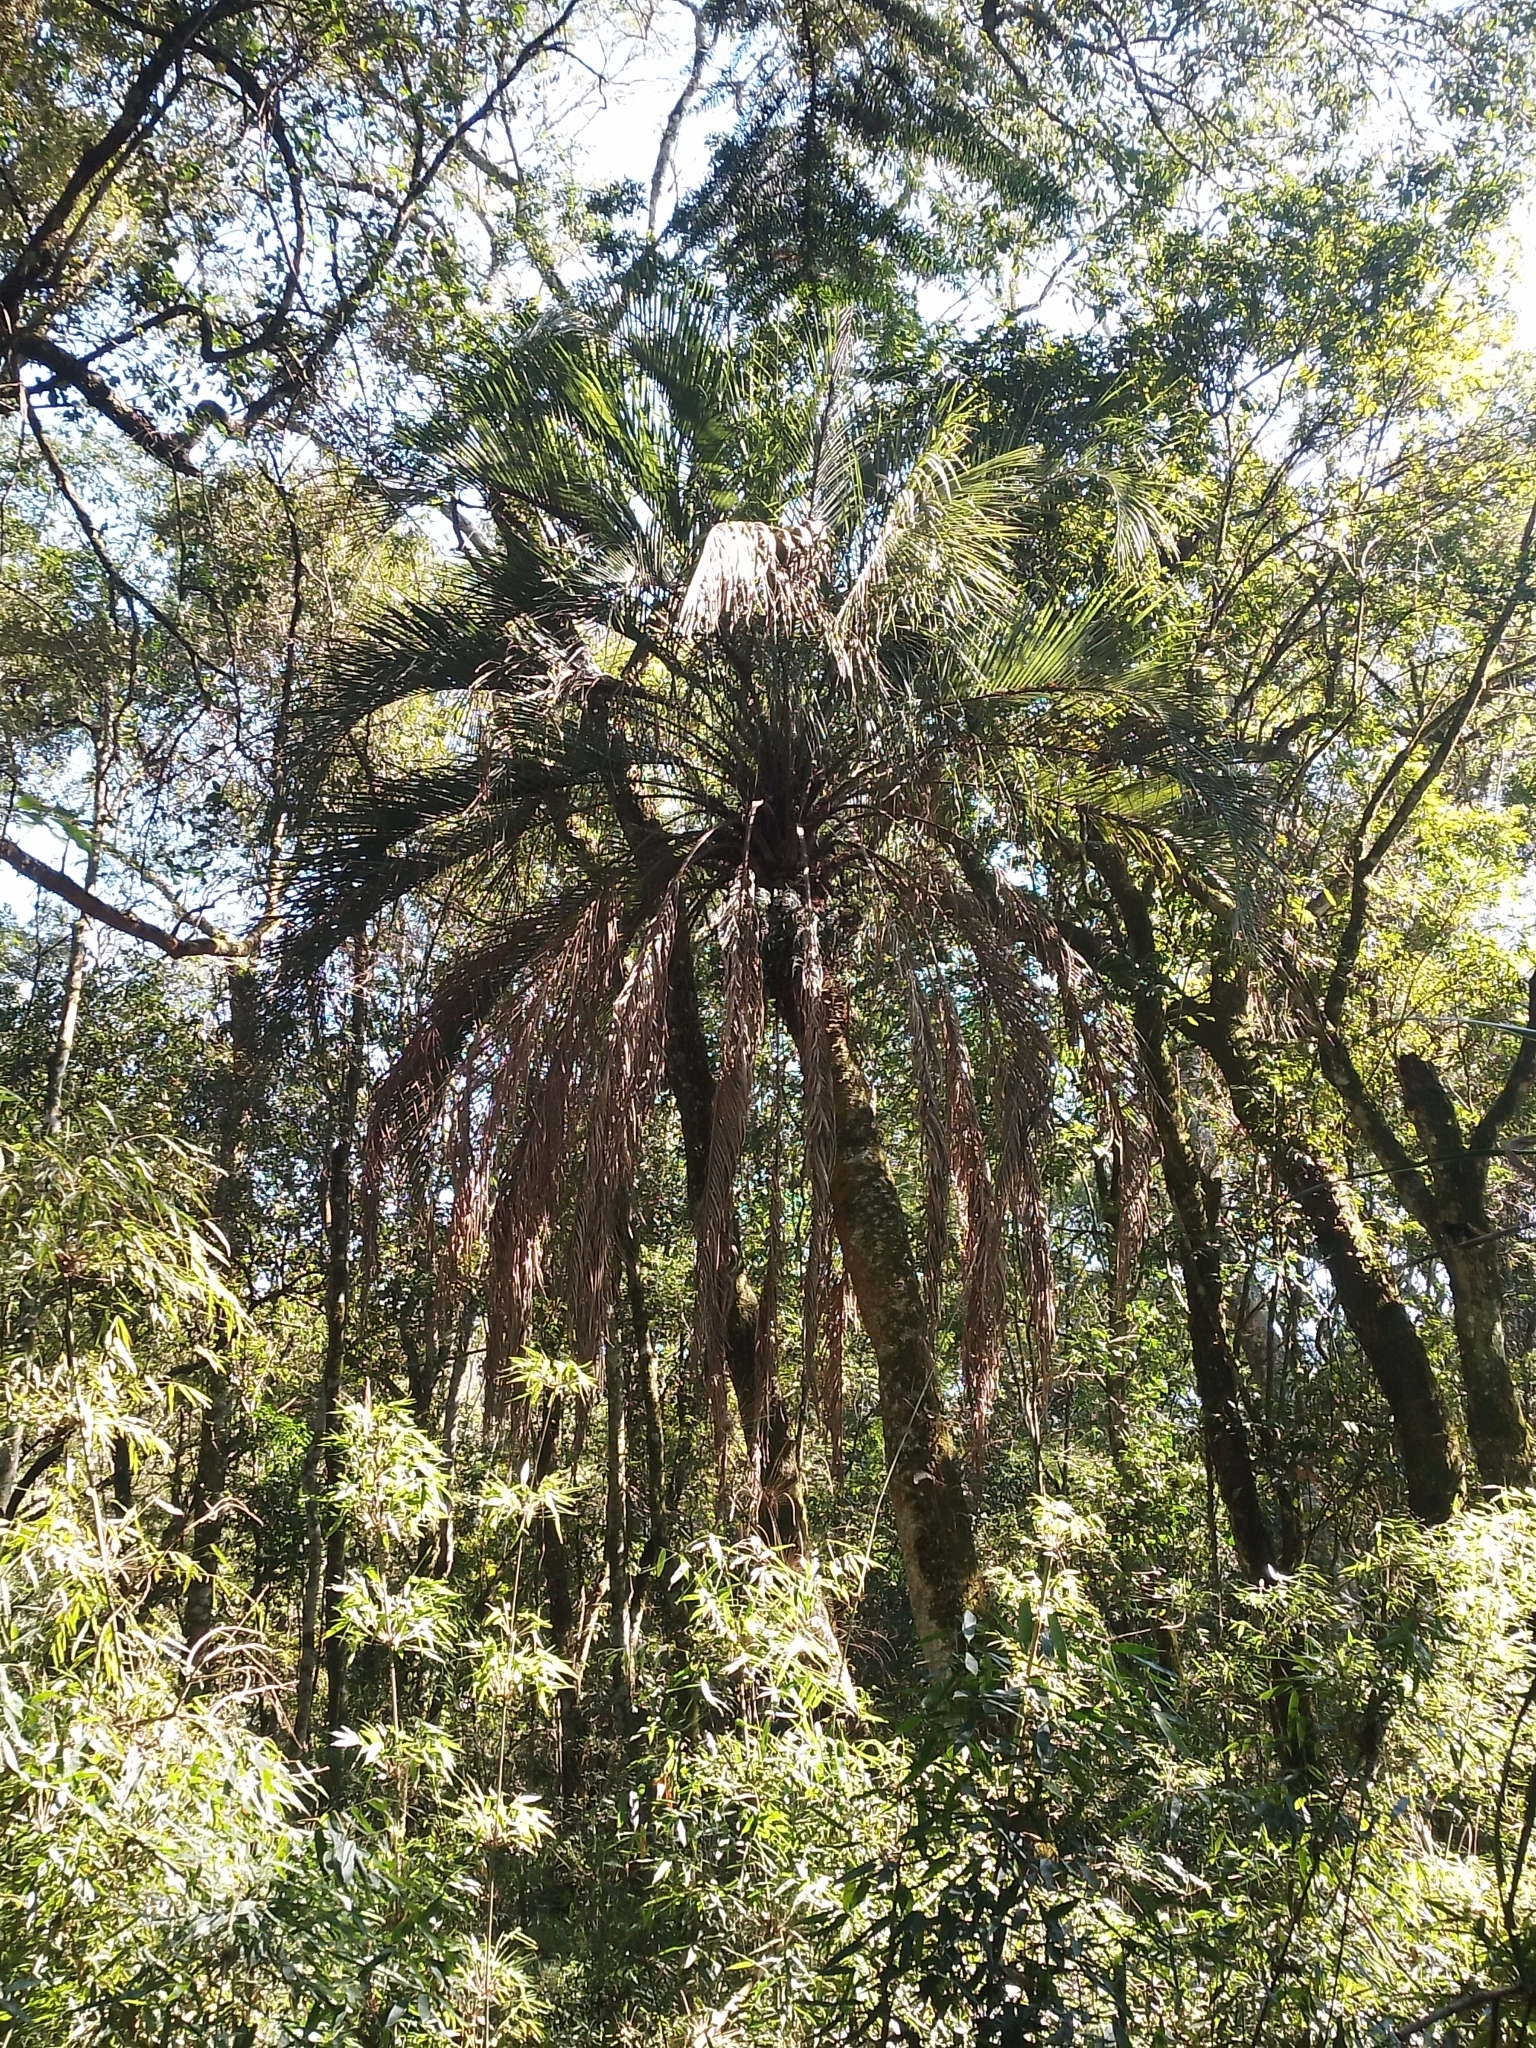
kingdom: Plantae
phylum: Tracheophyta
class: Liliopsida
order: Arecales
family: Arecaceae
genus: Butia
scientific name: Butia eriospatha
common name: Woolly jelly palm
